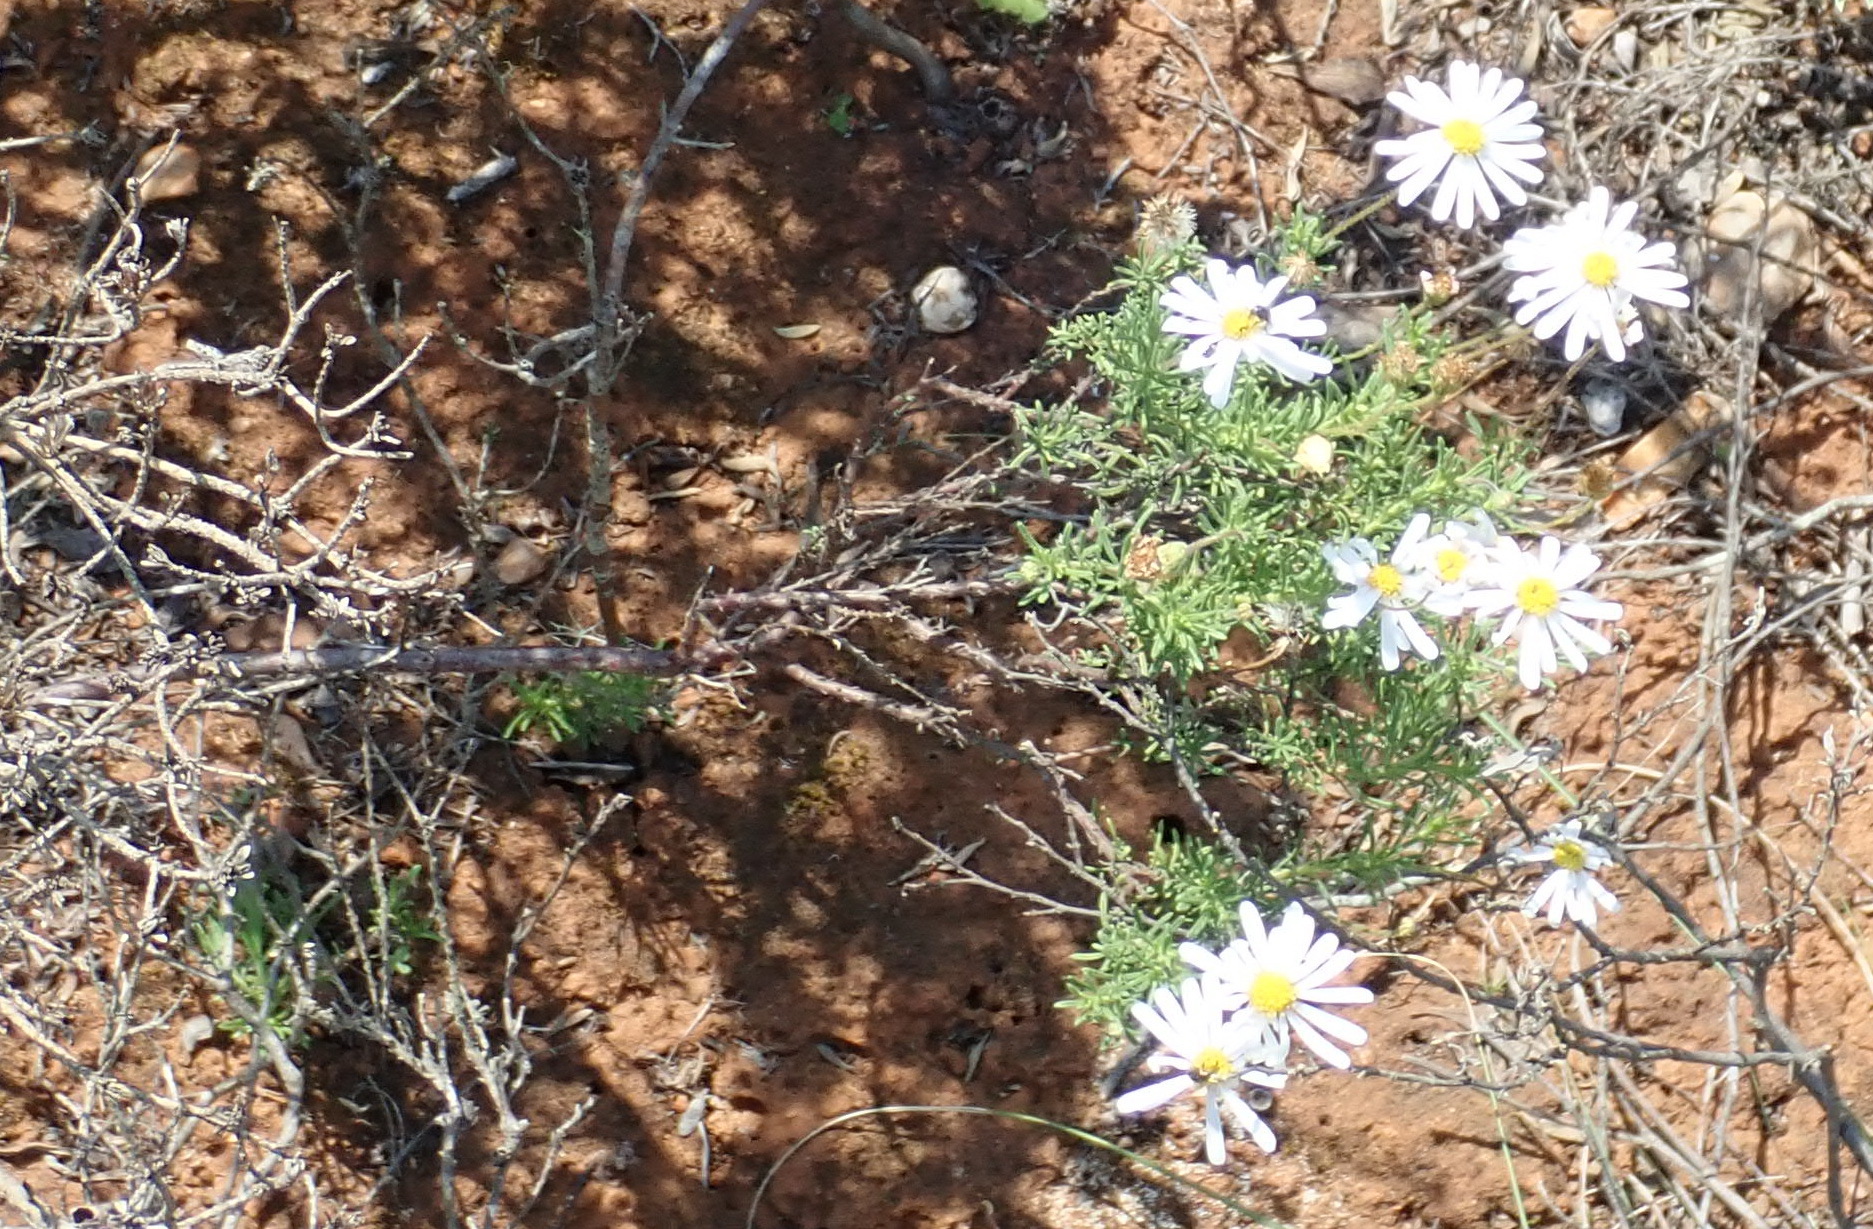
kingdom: Plantae
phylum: Tracheophyta
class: Magnoliopsida
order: Asterales
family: Asteraceae
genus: Felicia
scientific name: Felicia muricata
